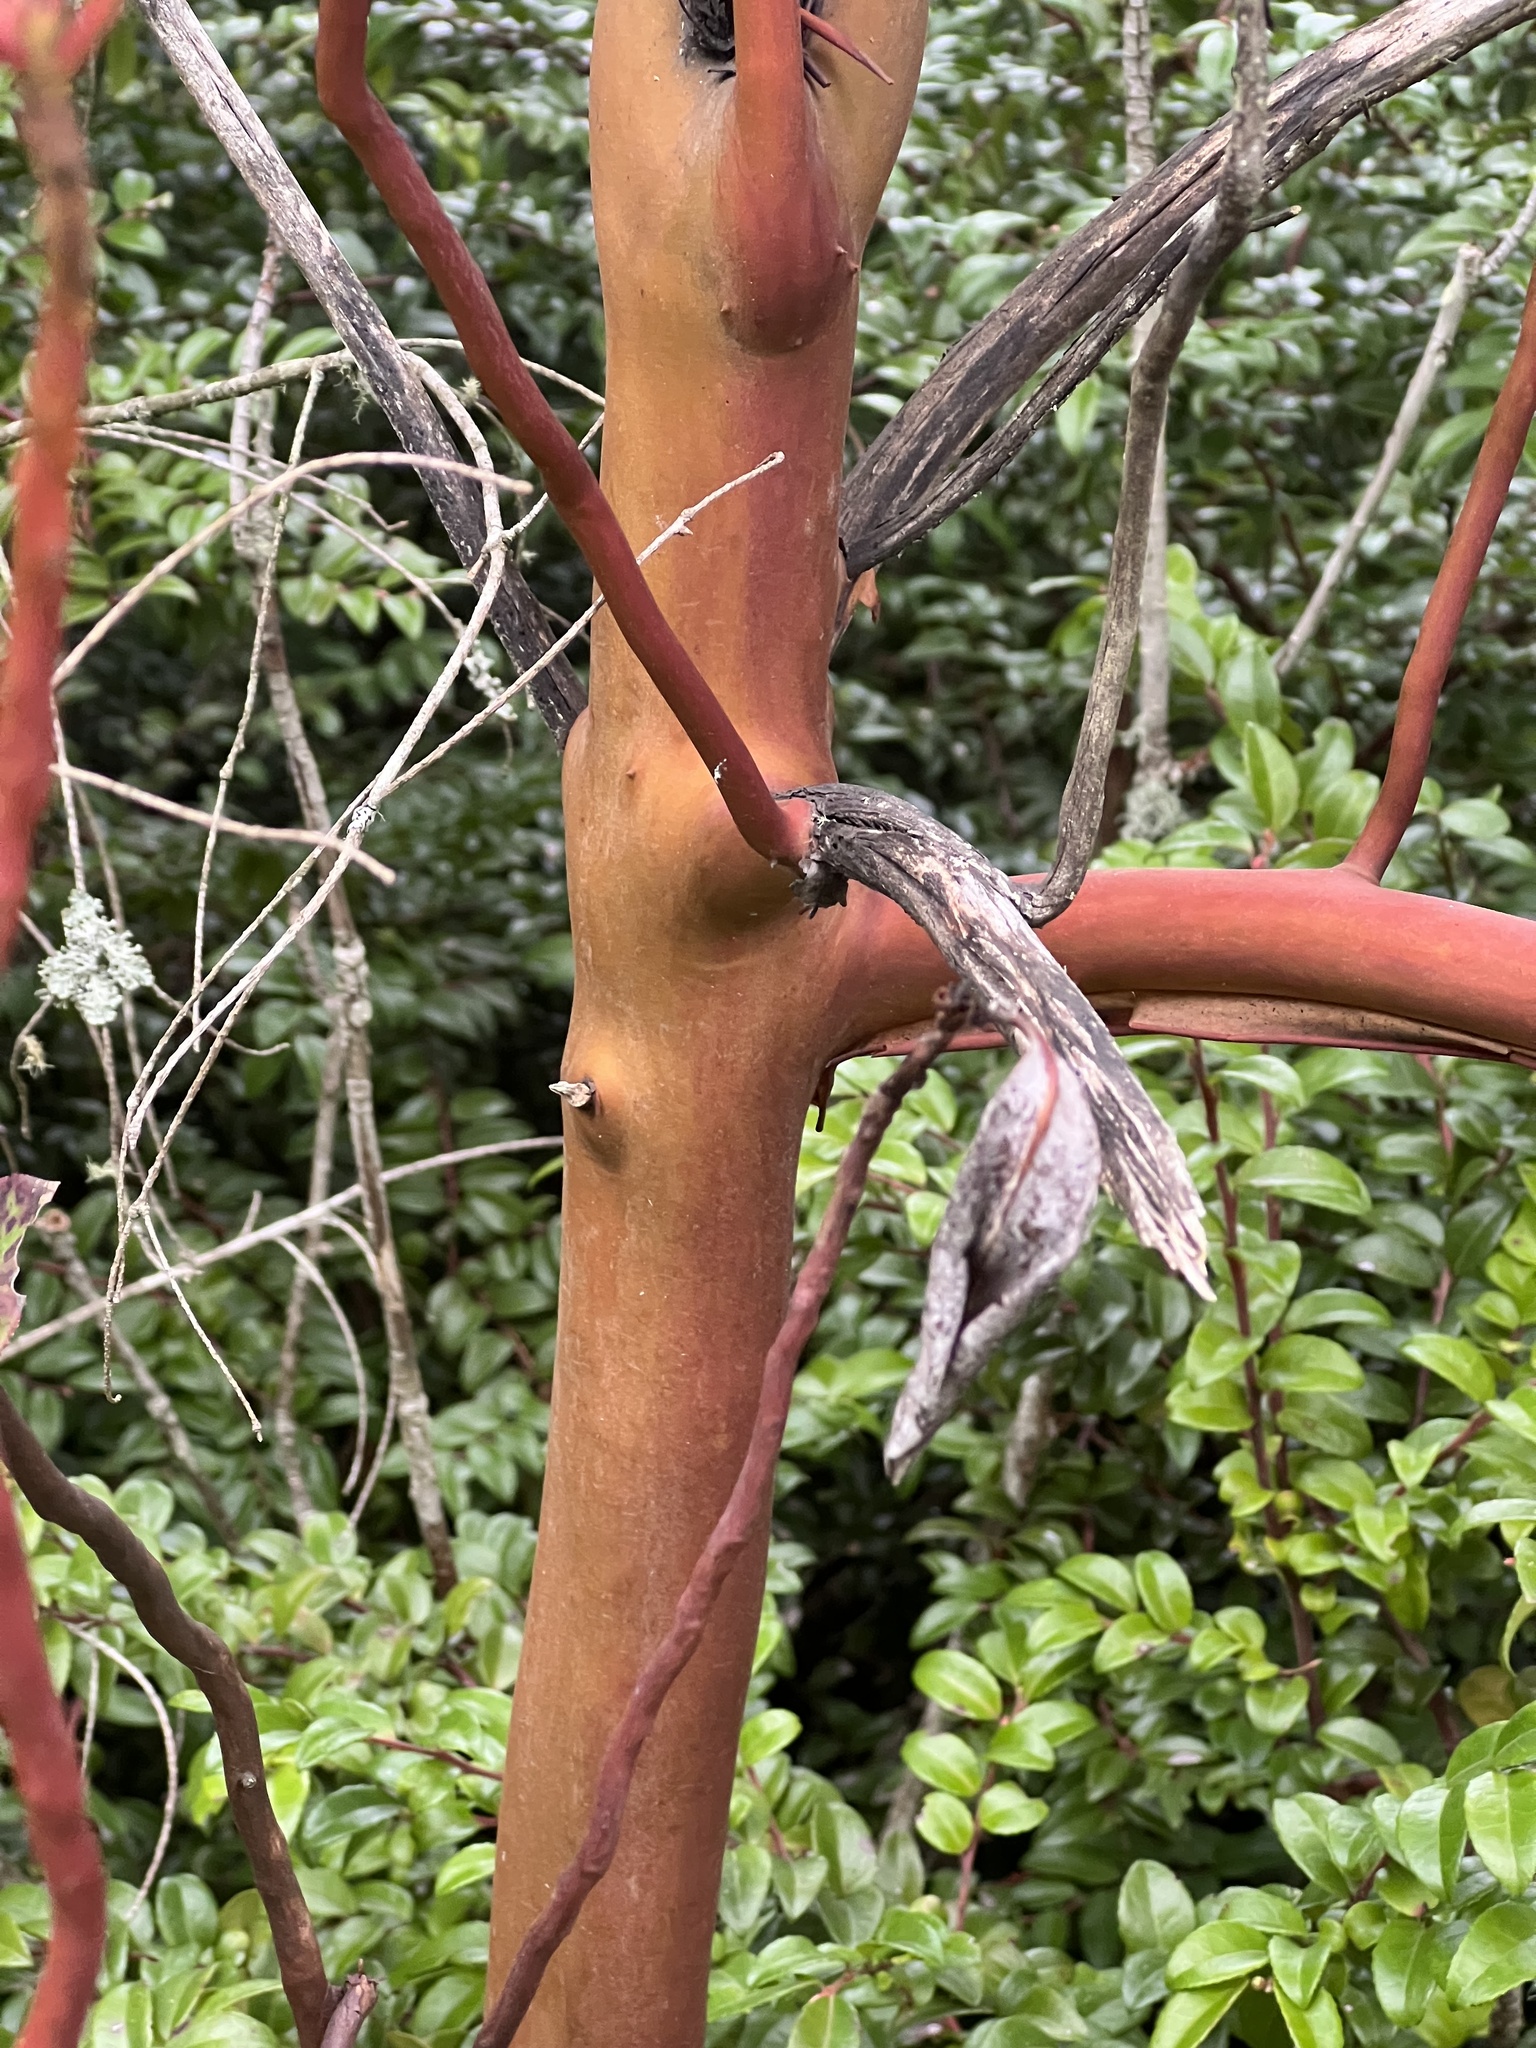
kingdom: Plantae
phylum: Tracheophyta
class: Magnoliopsida
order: Ericales
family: Ericaceae
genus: Arbutus
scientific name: Arbutus menziesii
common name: Pacific madrone
